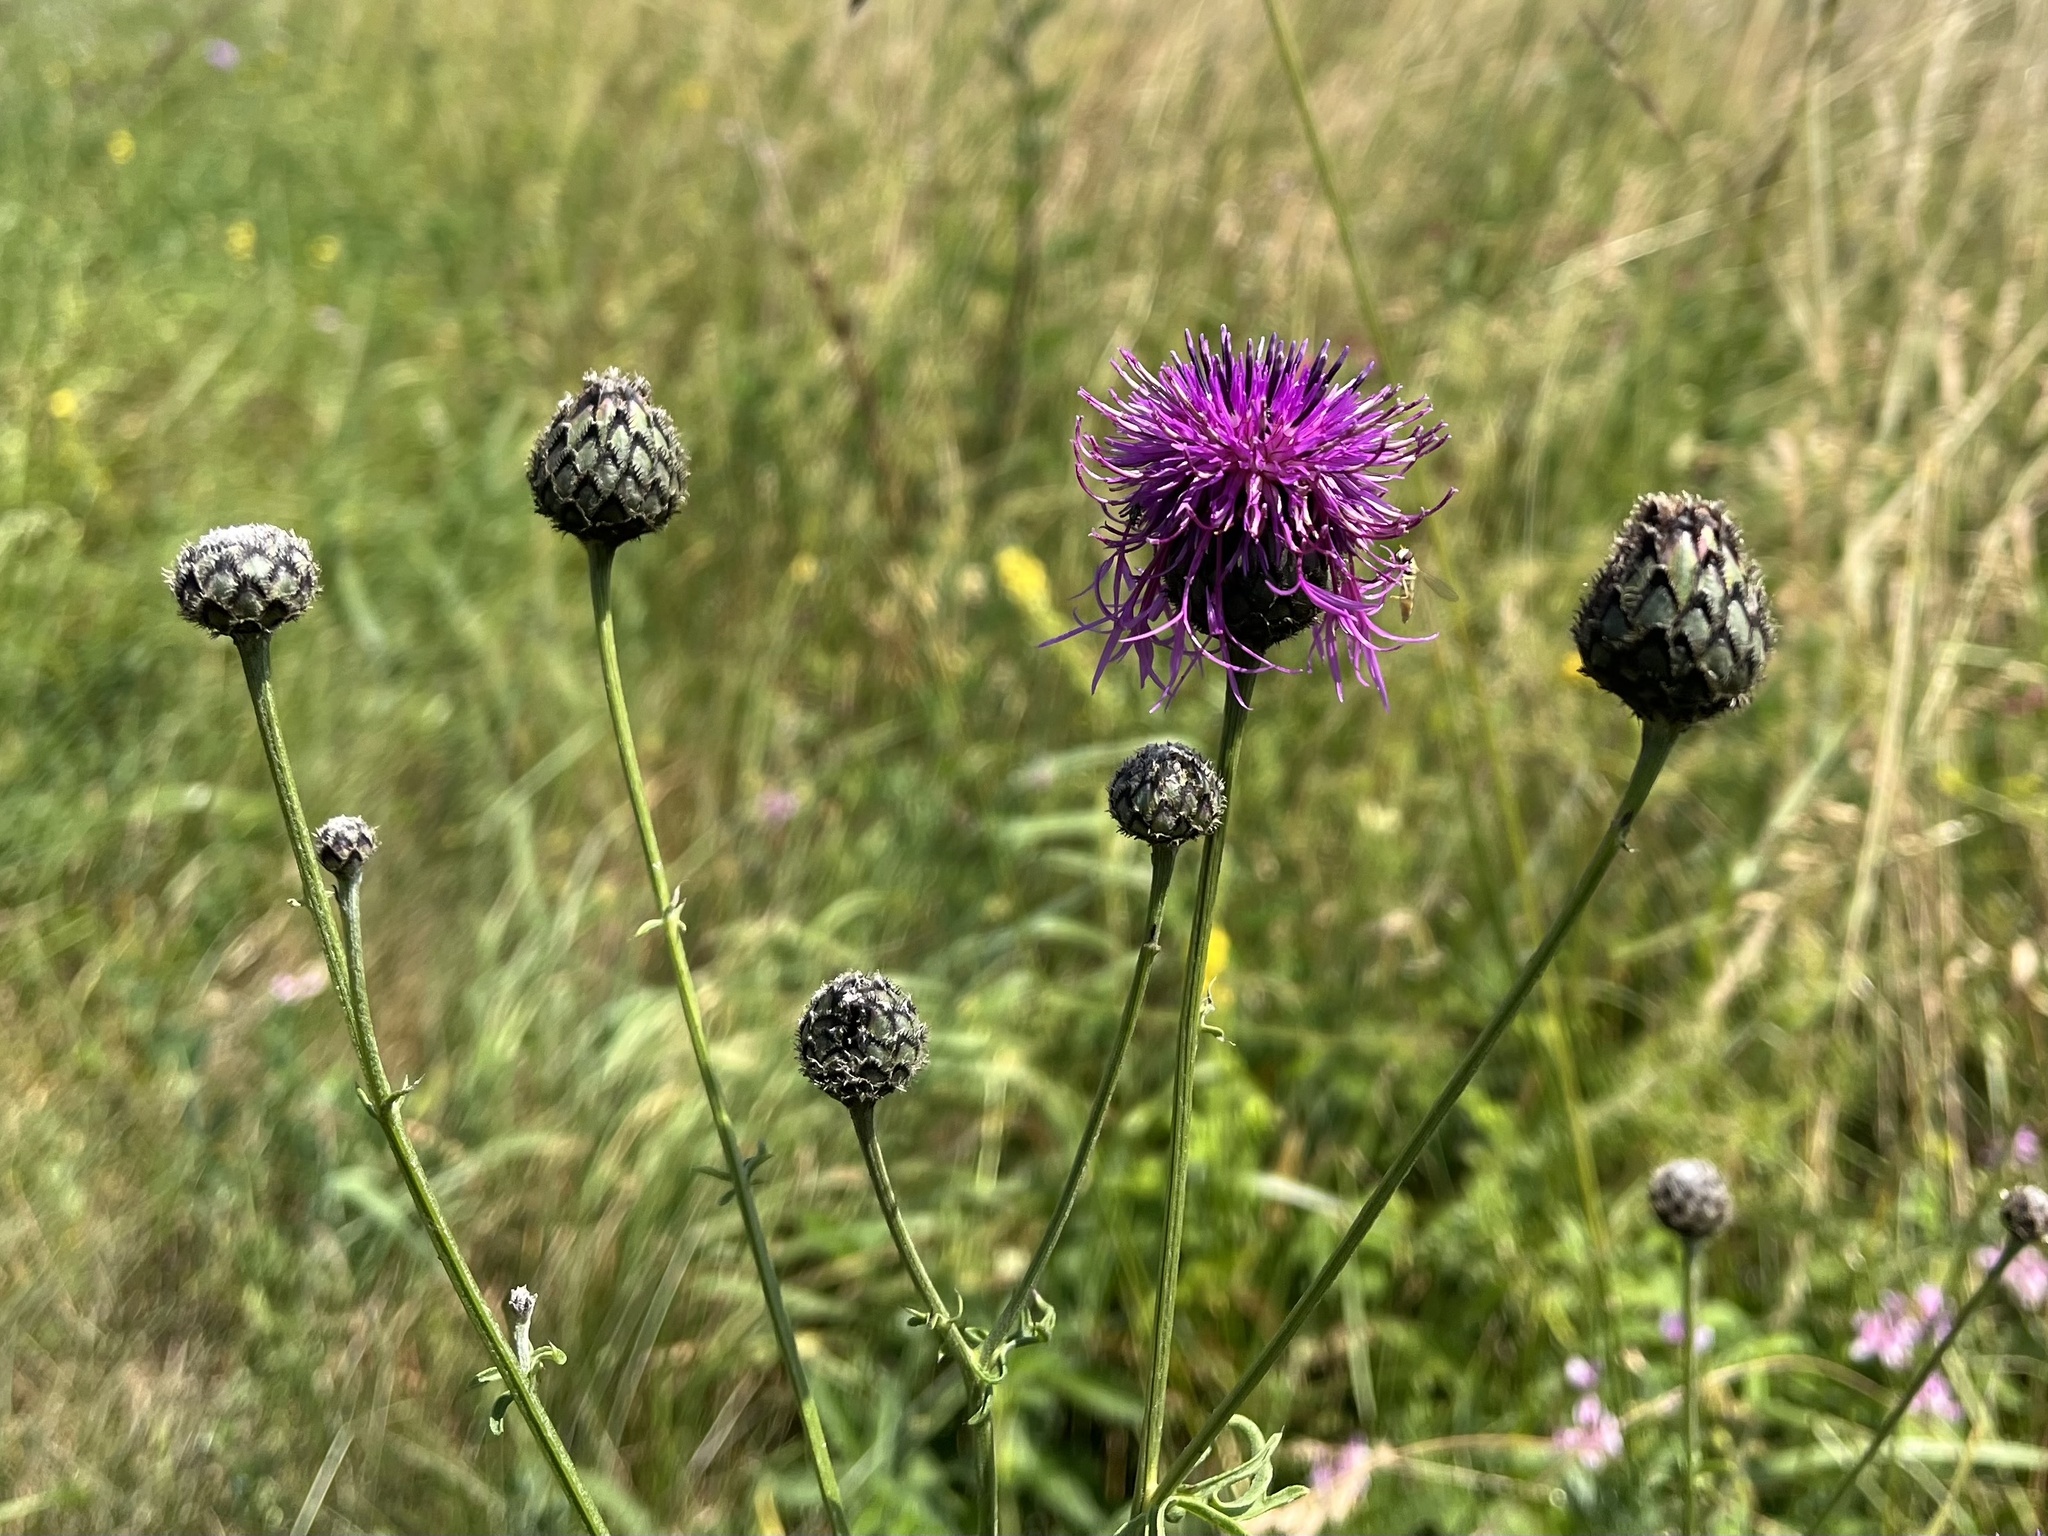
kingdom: Plantae
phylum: Tracheophyta
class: Magnoliopsida
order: Asterales
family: Asteraceae
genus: Centaurea
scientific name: Centaurea scabiosa
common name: Greater knapweed
